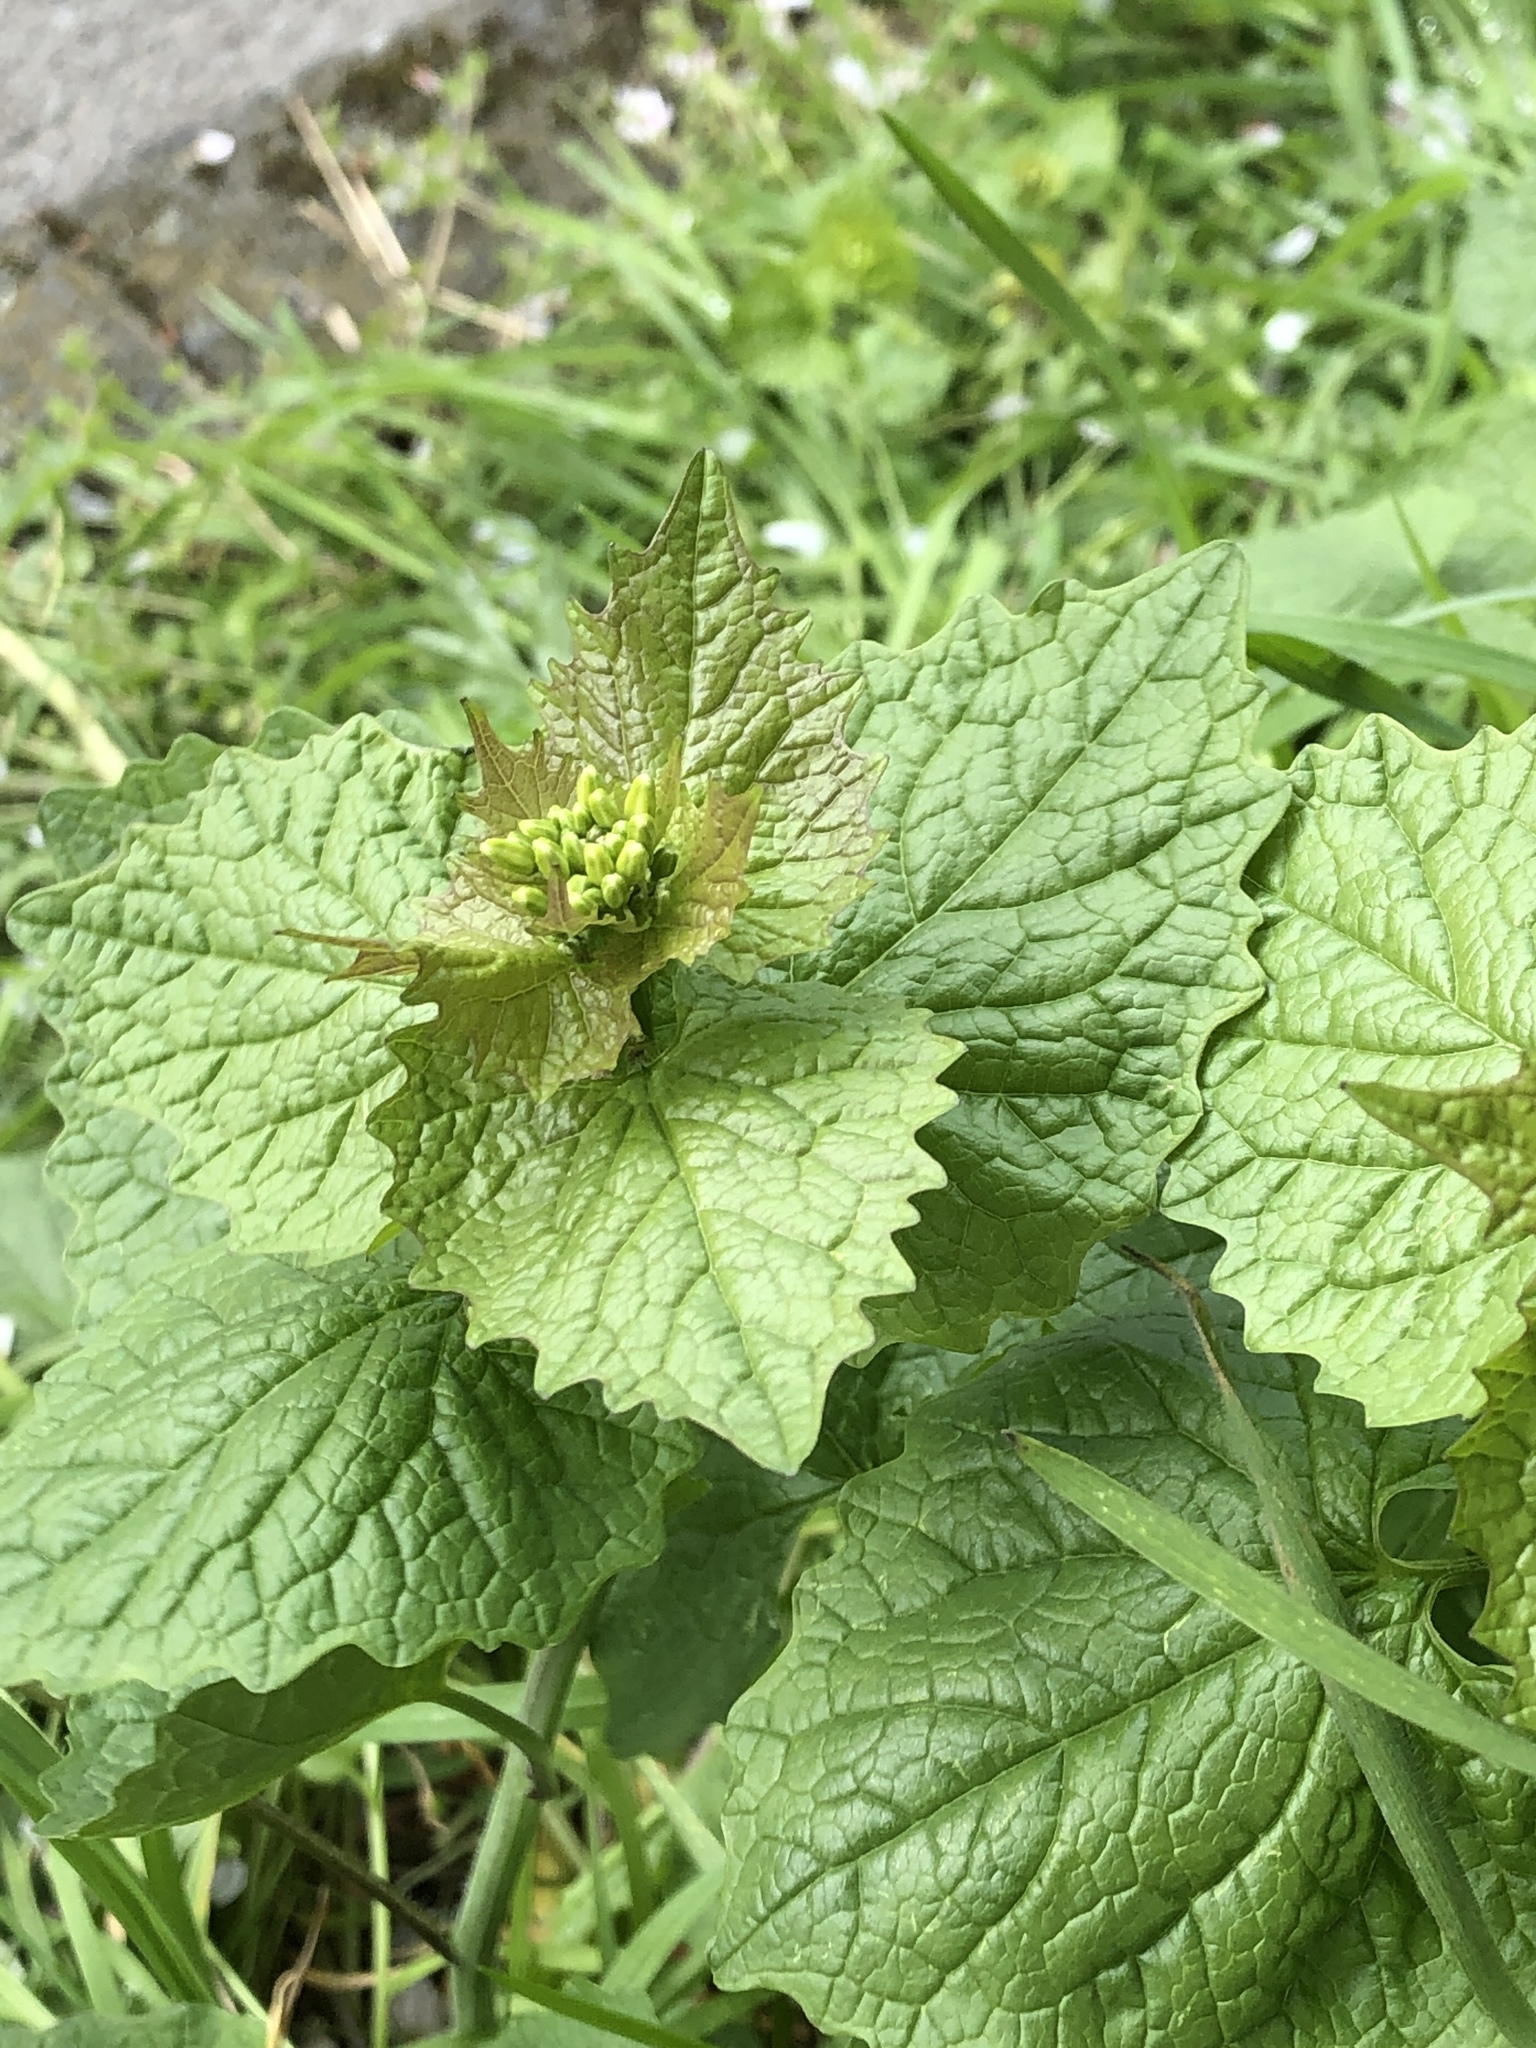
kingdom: Plantae
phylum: Tracheophyta
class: Magnoliopsida
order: Brassicales
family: Brassicaceae
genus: Alliaria
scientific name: Alliaria petiolata
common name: Garlic mustard
